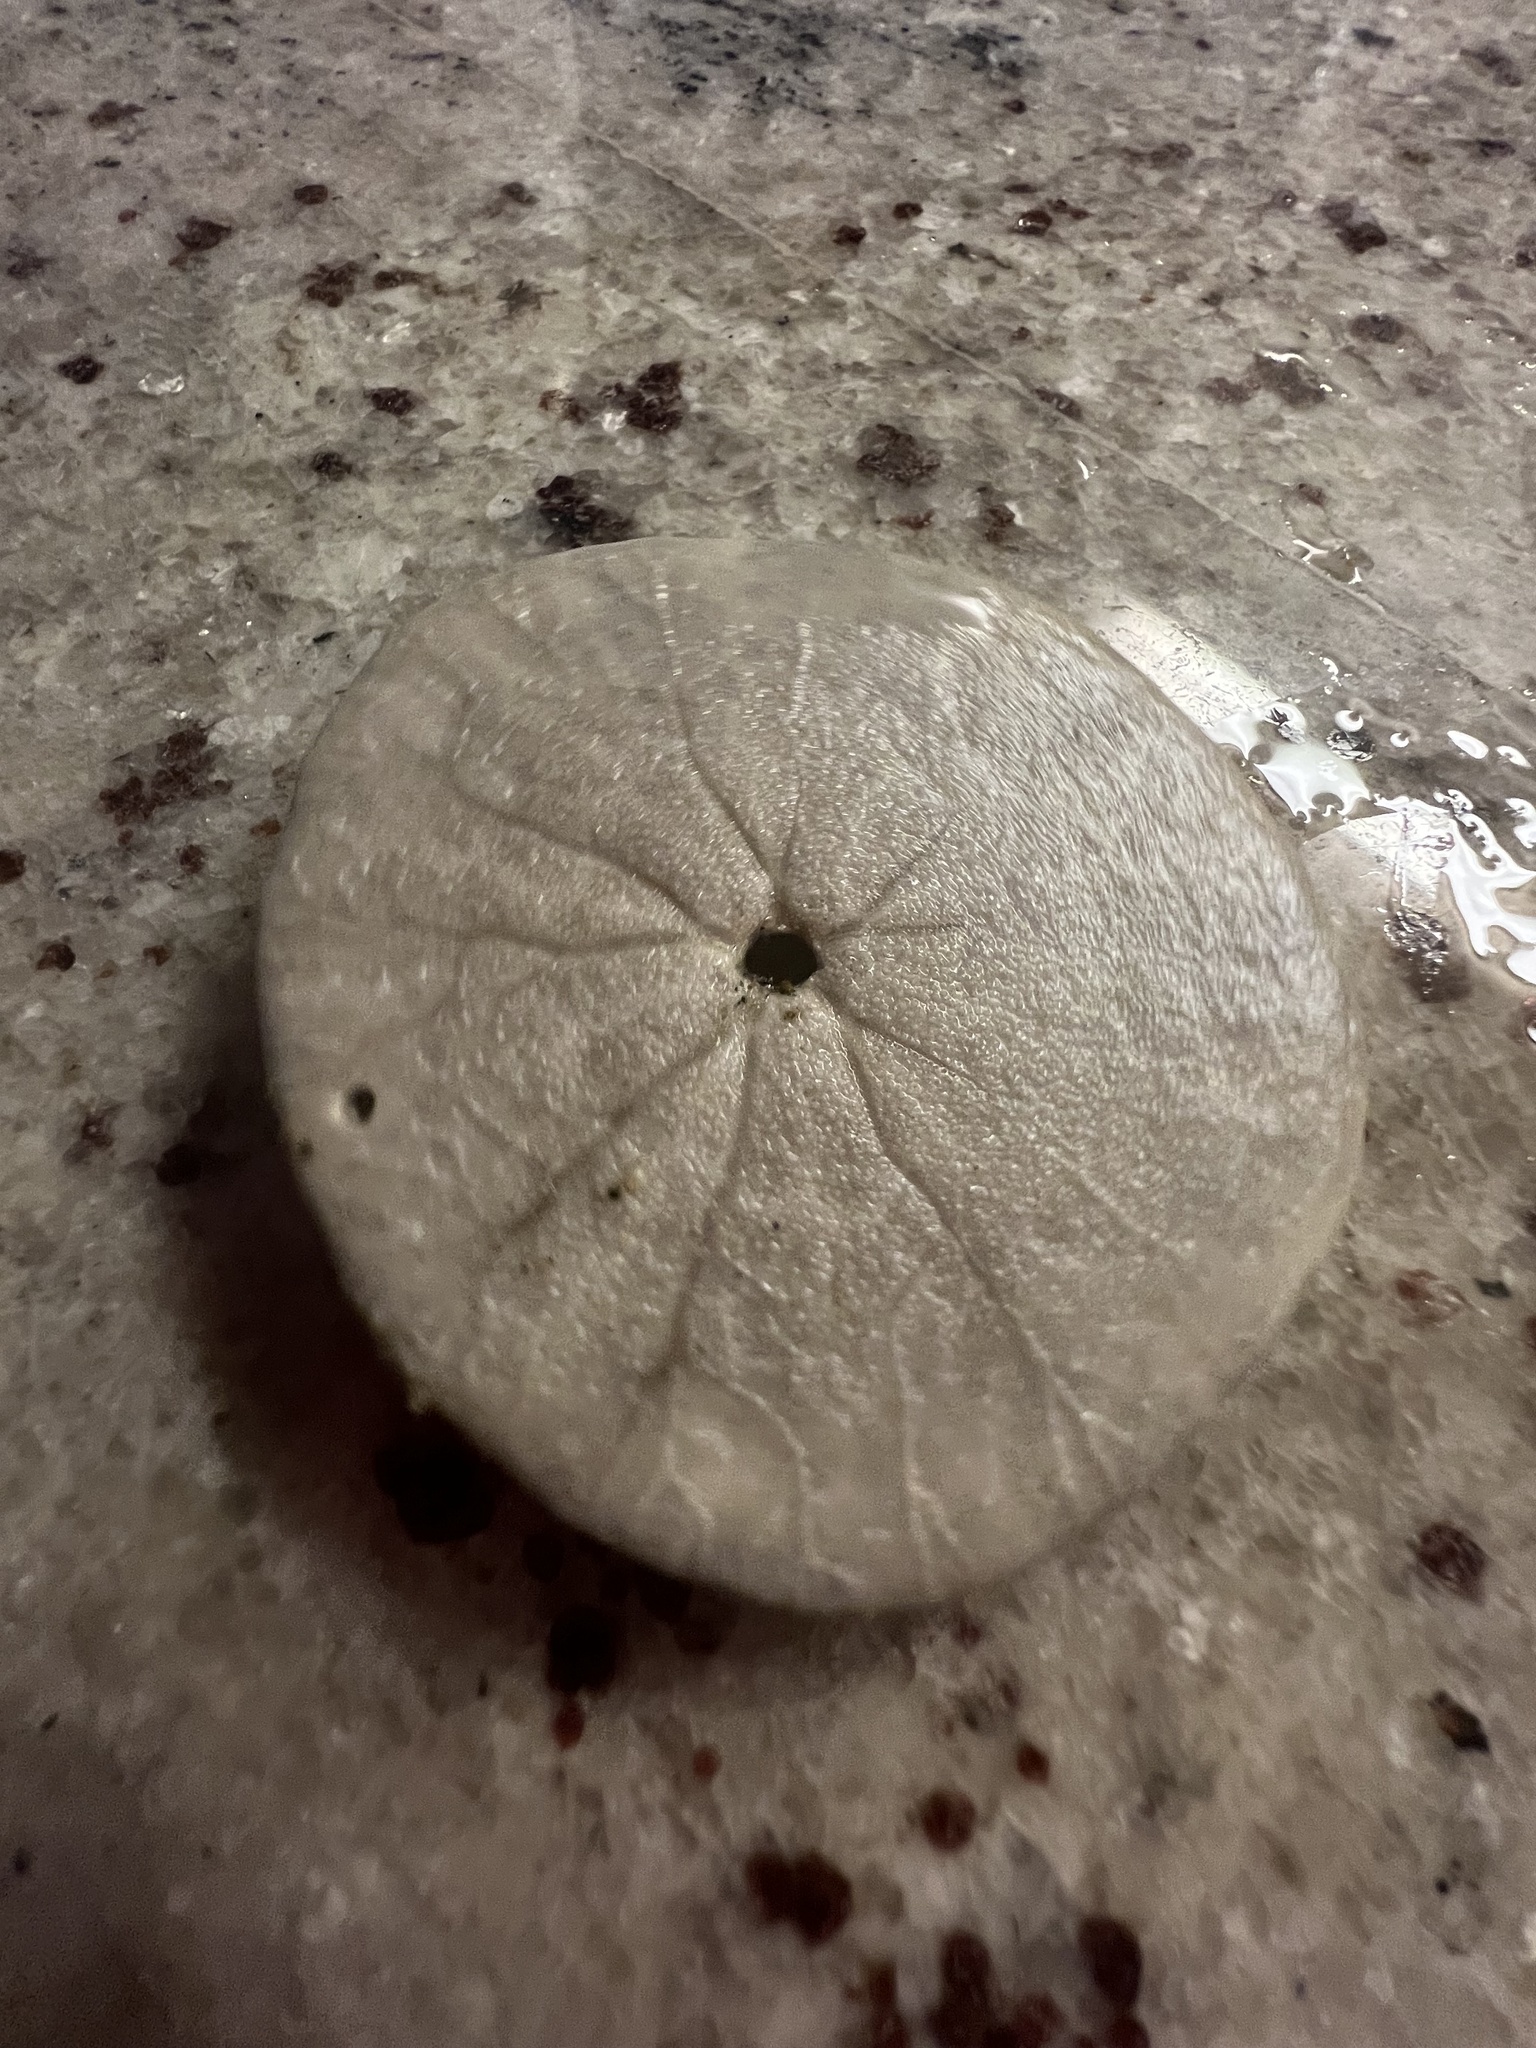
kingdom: Animalia
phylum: Echinodermata
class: Echinoidea
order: Echinolampadacea
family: Dendrasteridae
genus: Dendraster
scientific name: Dendraster excentricus
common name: Eccentric sand dollar sea urchin
